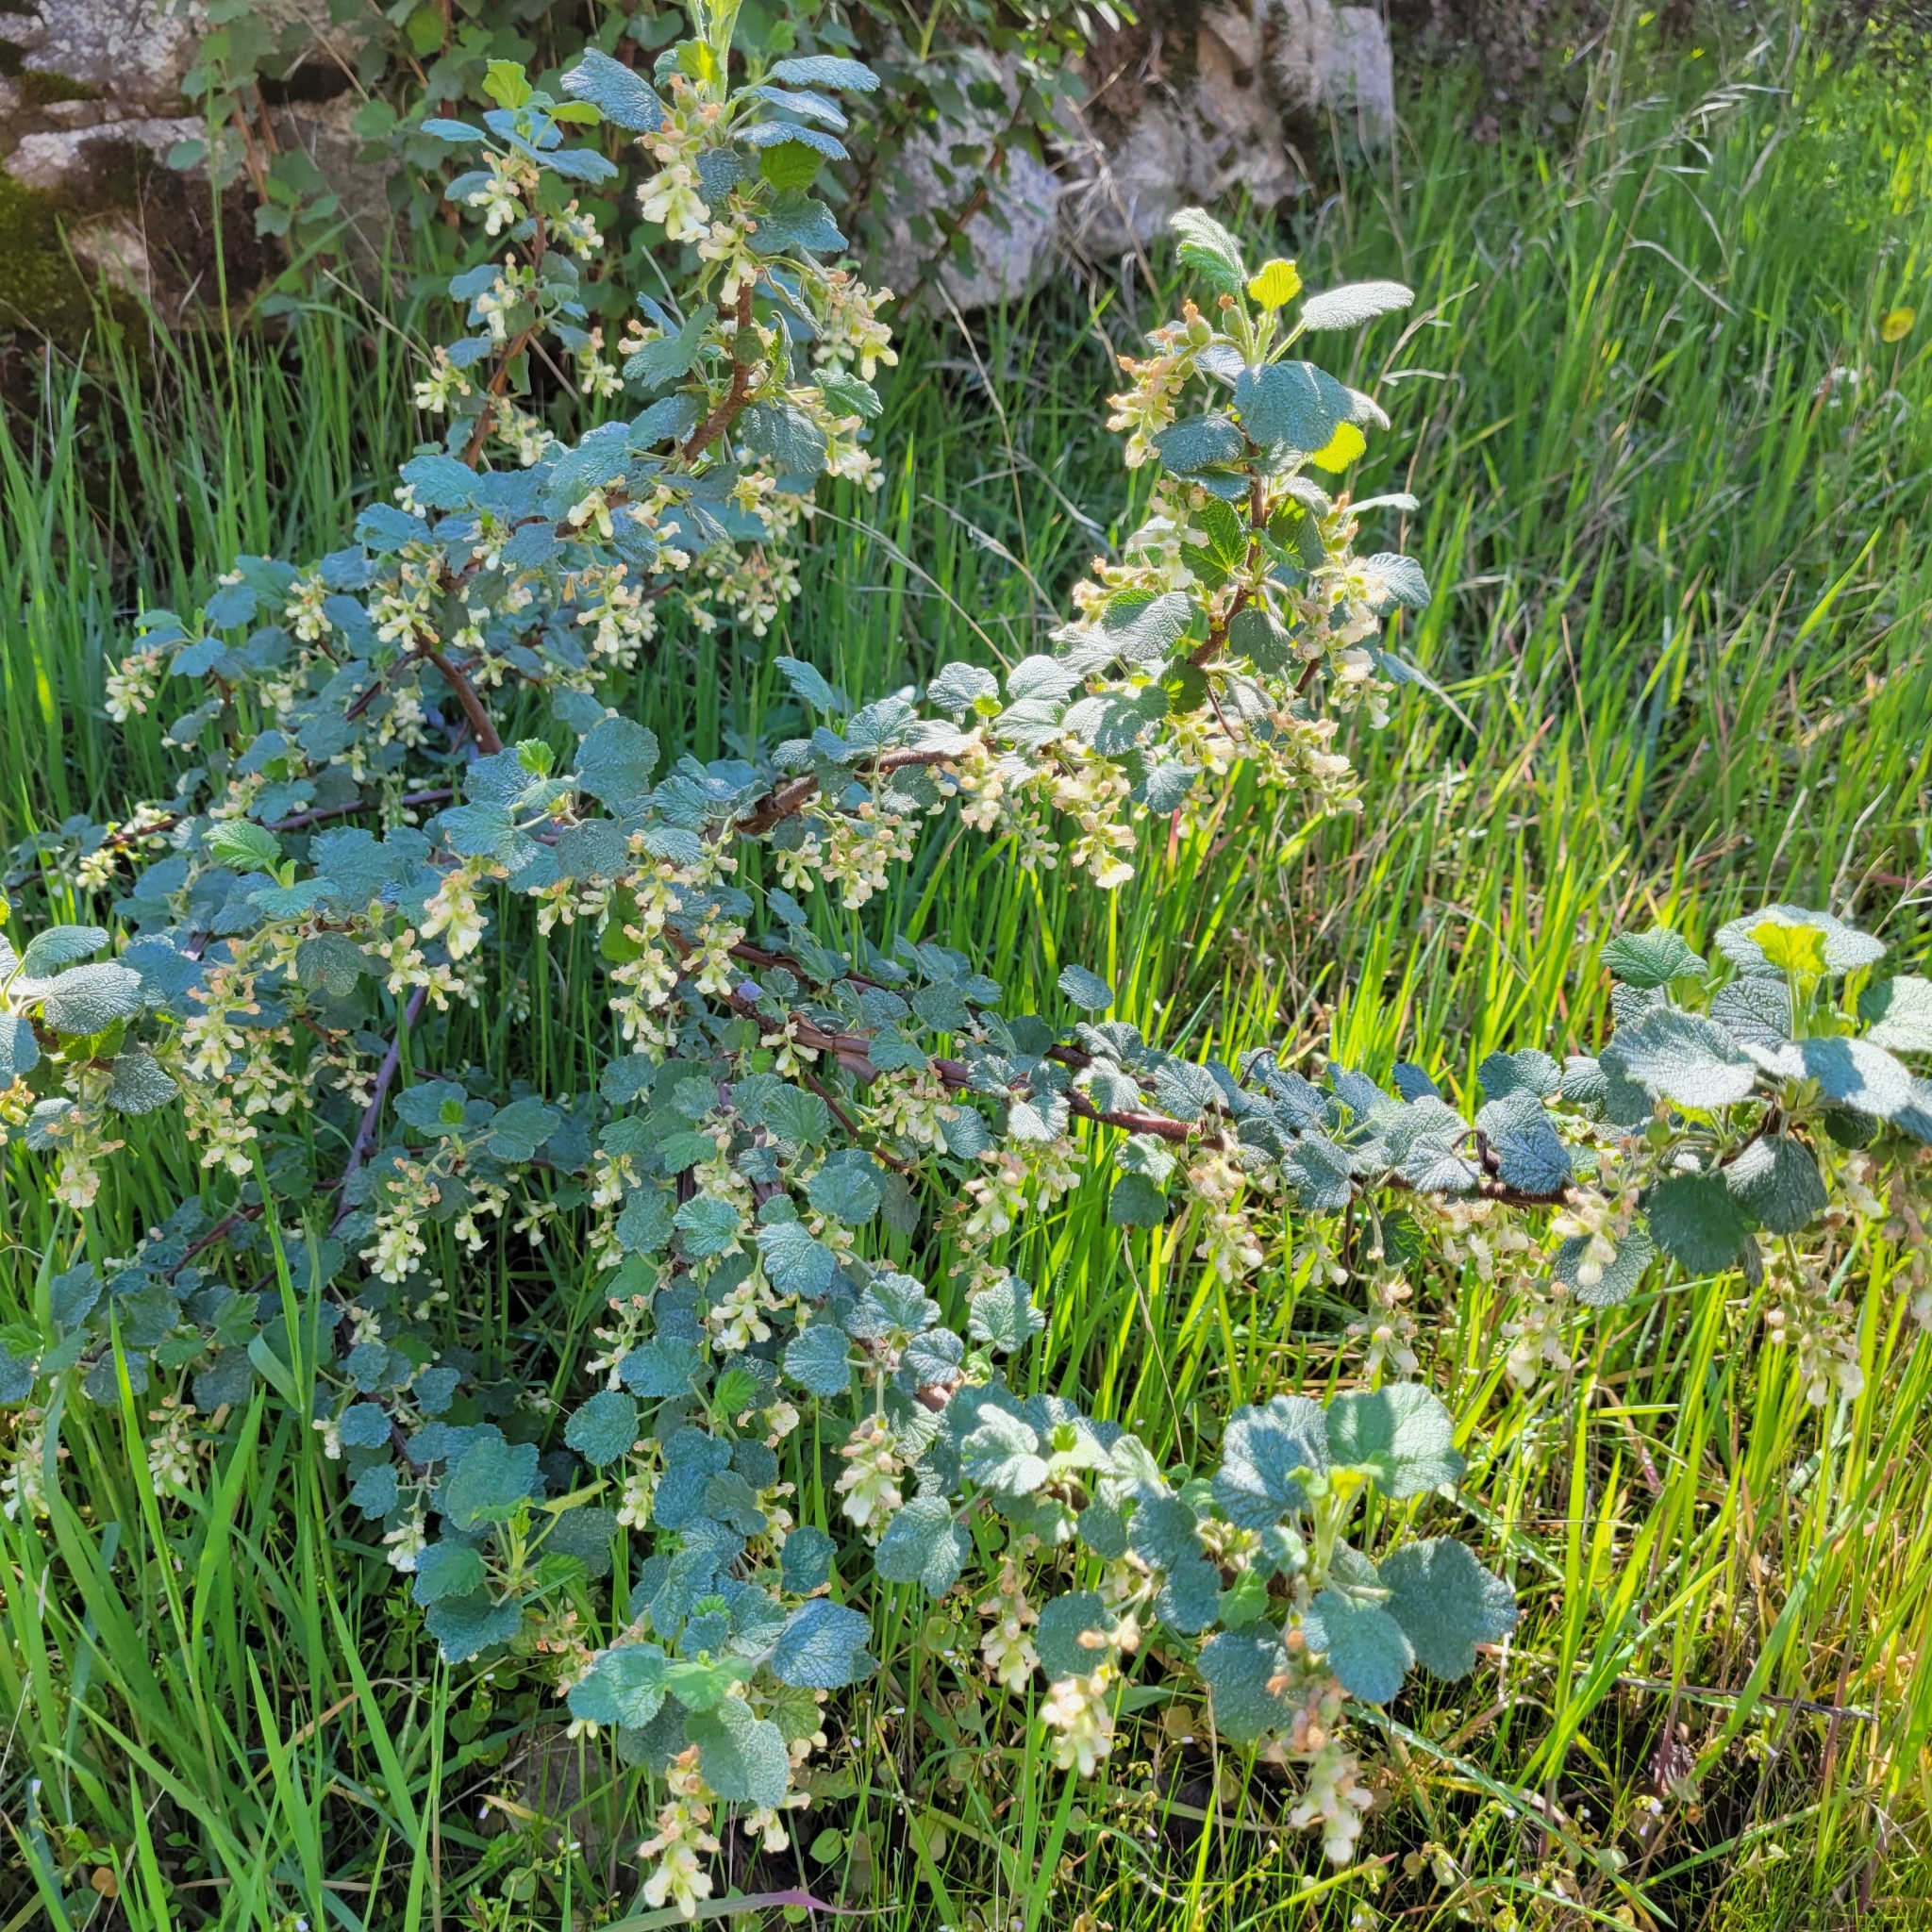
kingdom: Plantae
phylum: Tracheophyta
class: Magnoliopsida
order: Saxifragales
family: Grossulariaceae
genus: Ribes
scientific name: Ribes indecorum
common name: White-flower currant
